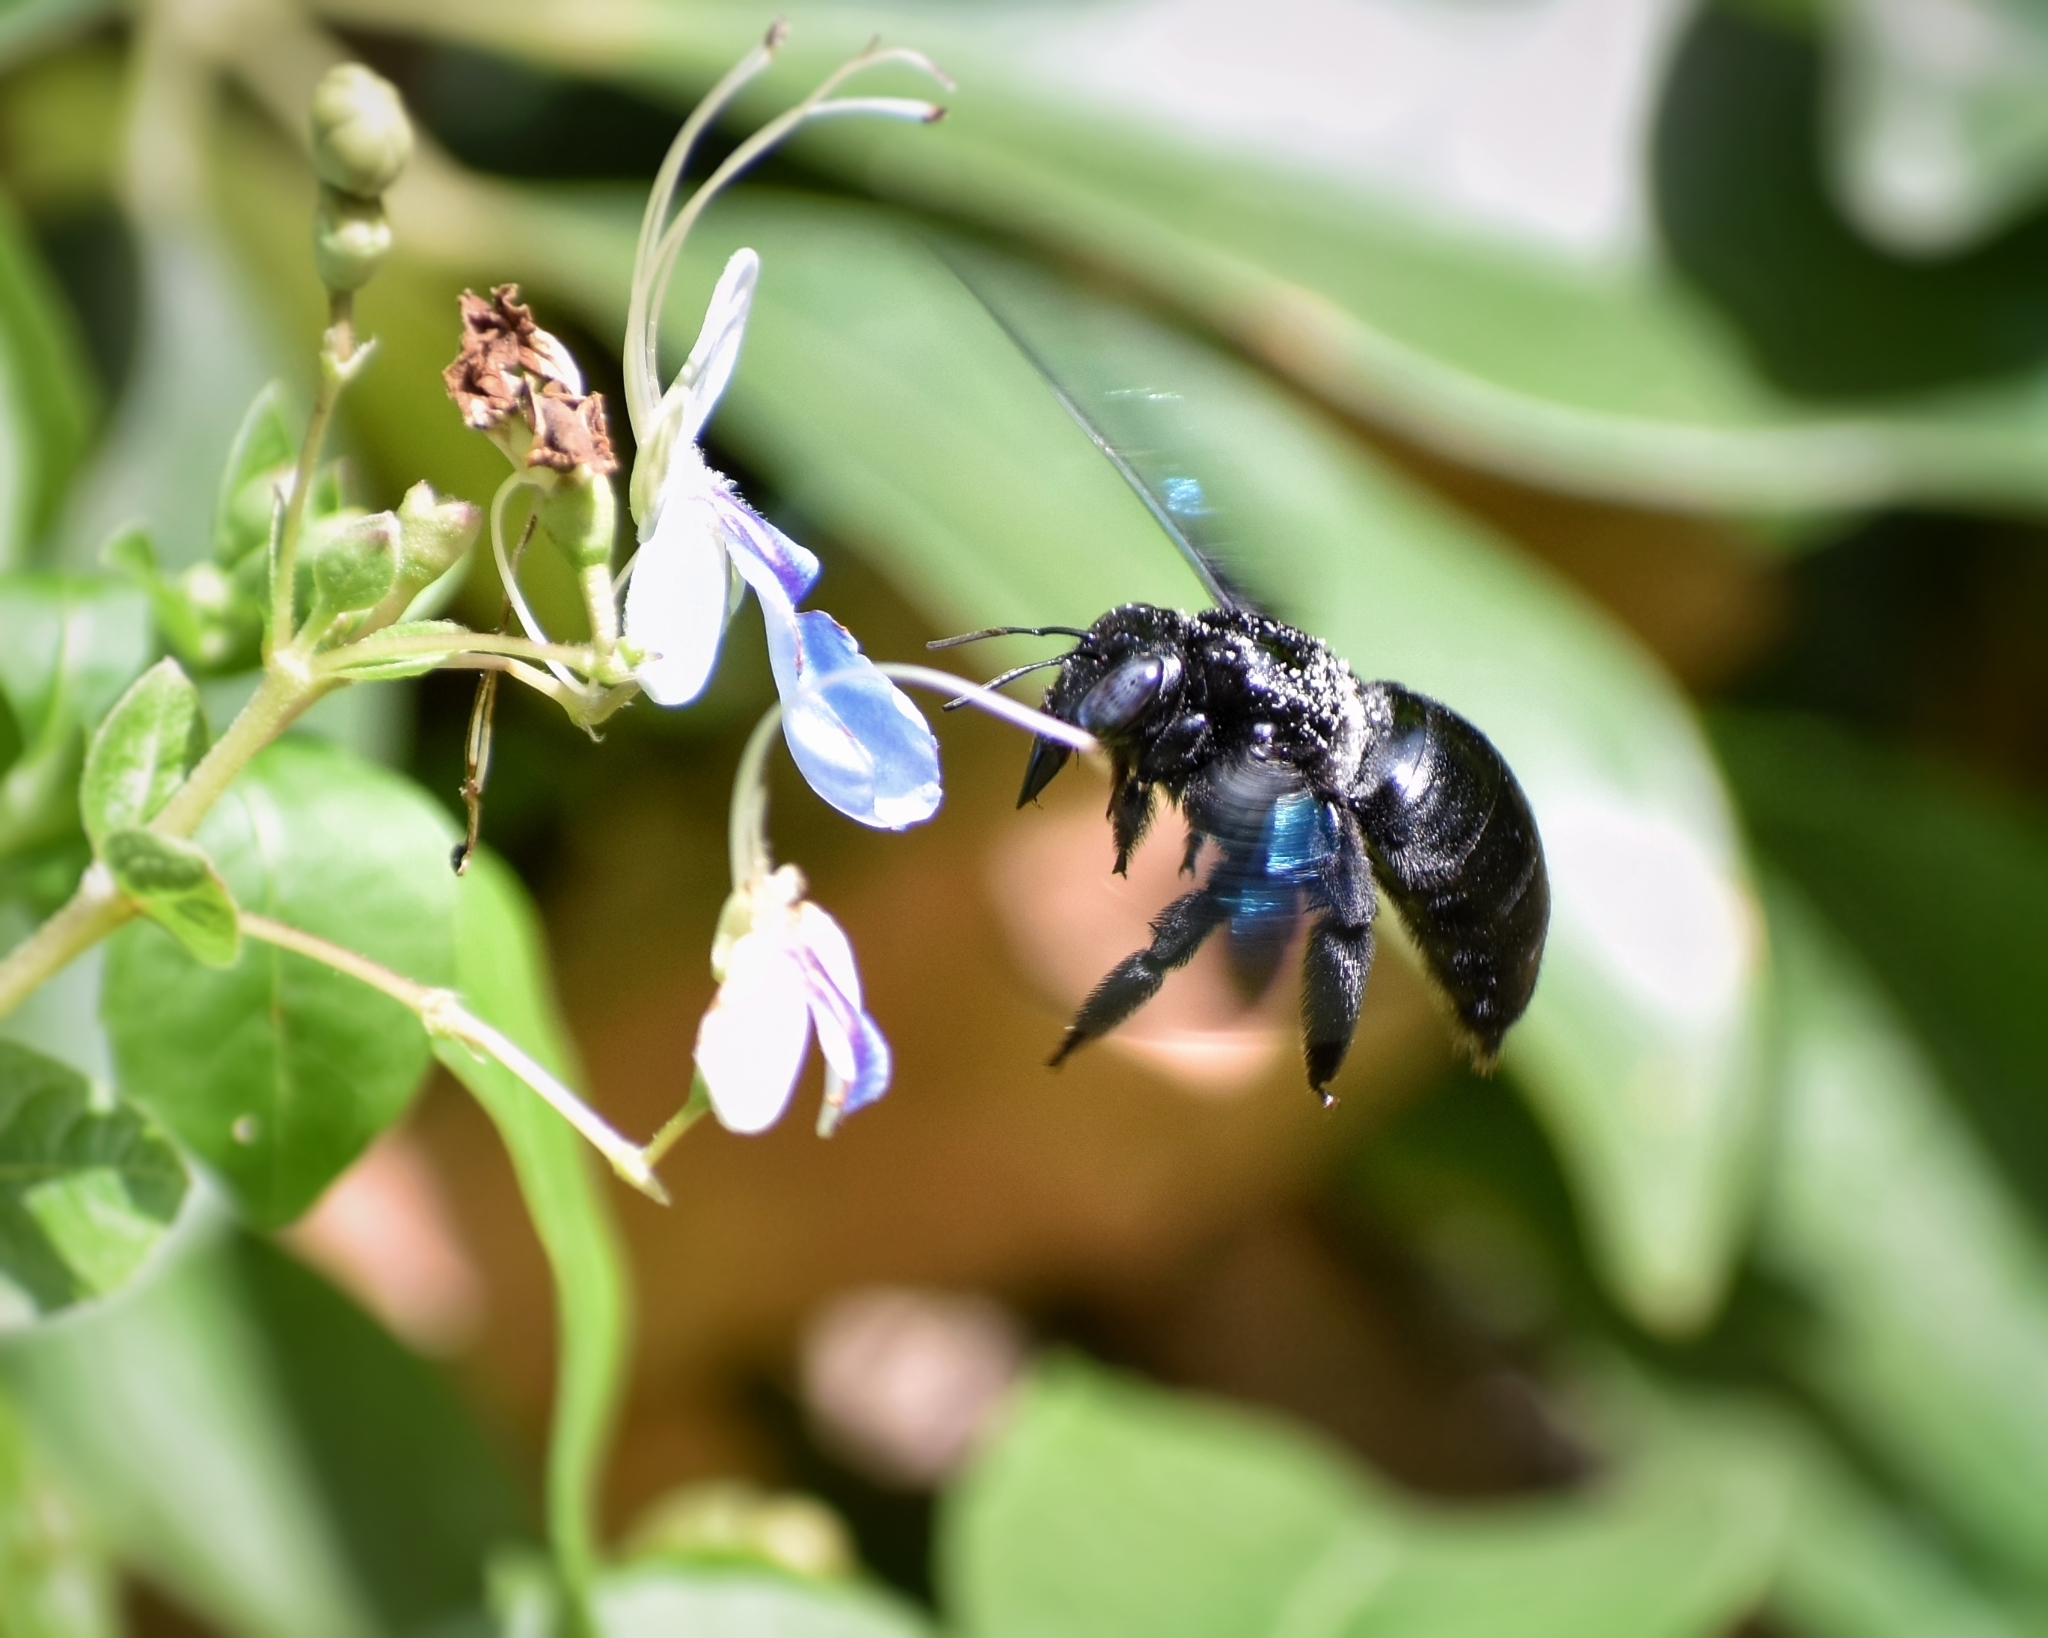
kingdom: Animalia
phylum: Arthropoda
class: Insecta
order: Hymenoptera
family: Apidae
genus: Xylocopa
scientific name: Xylocopa nasalis
